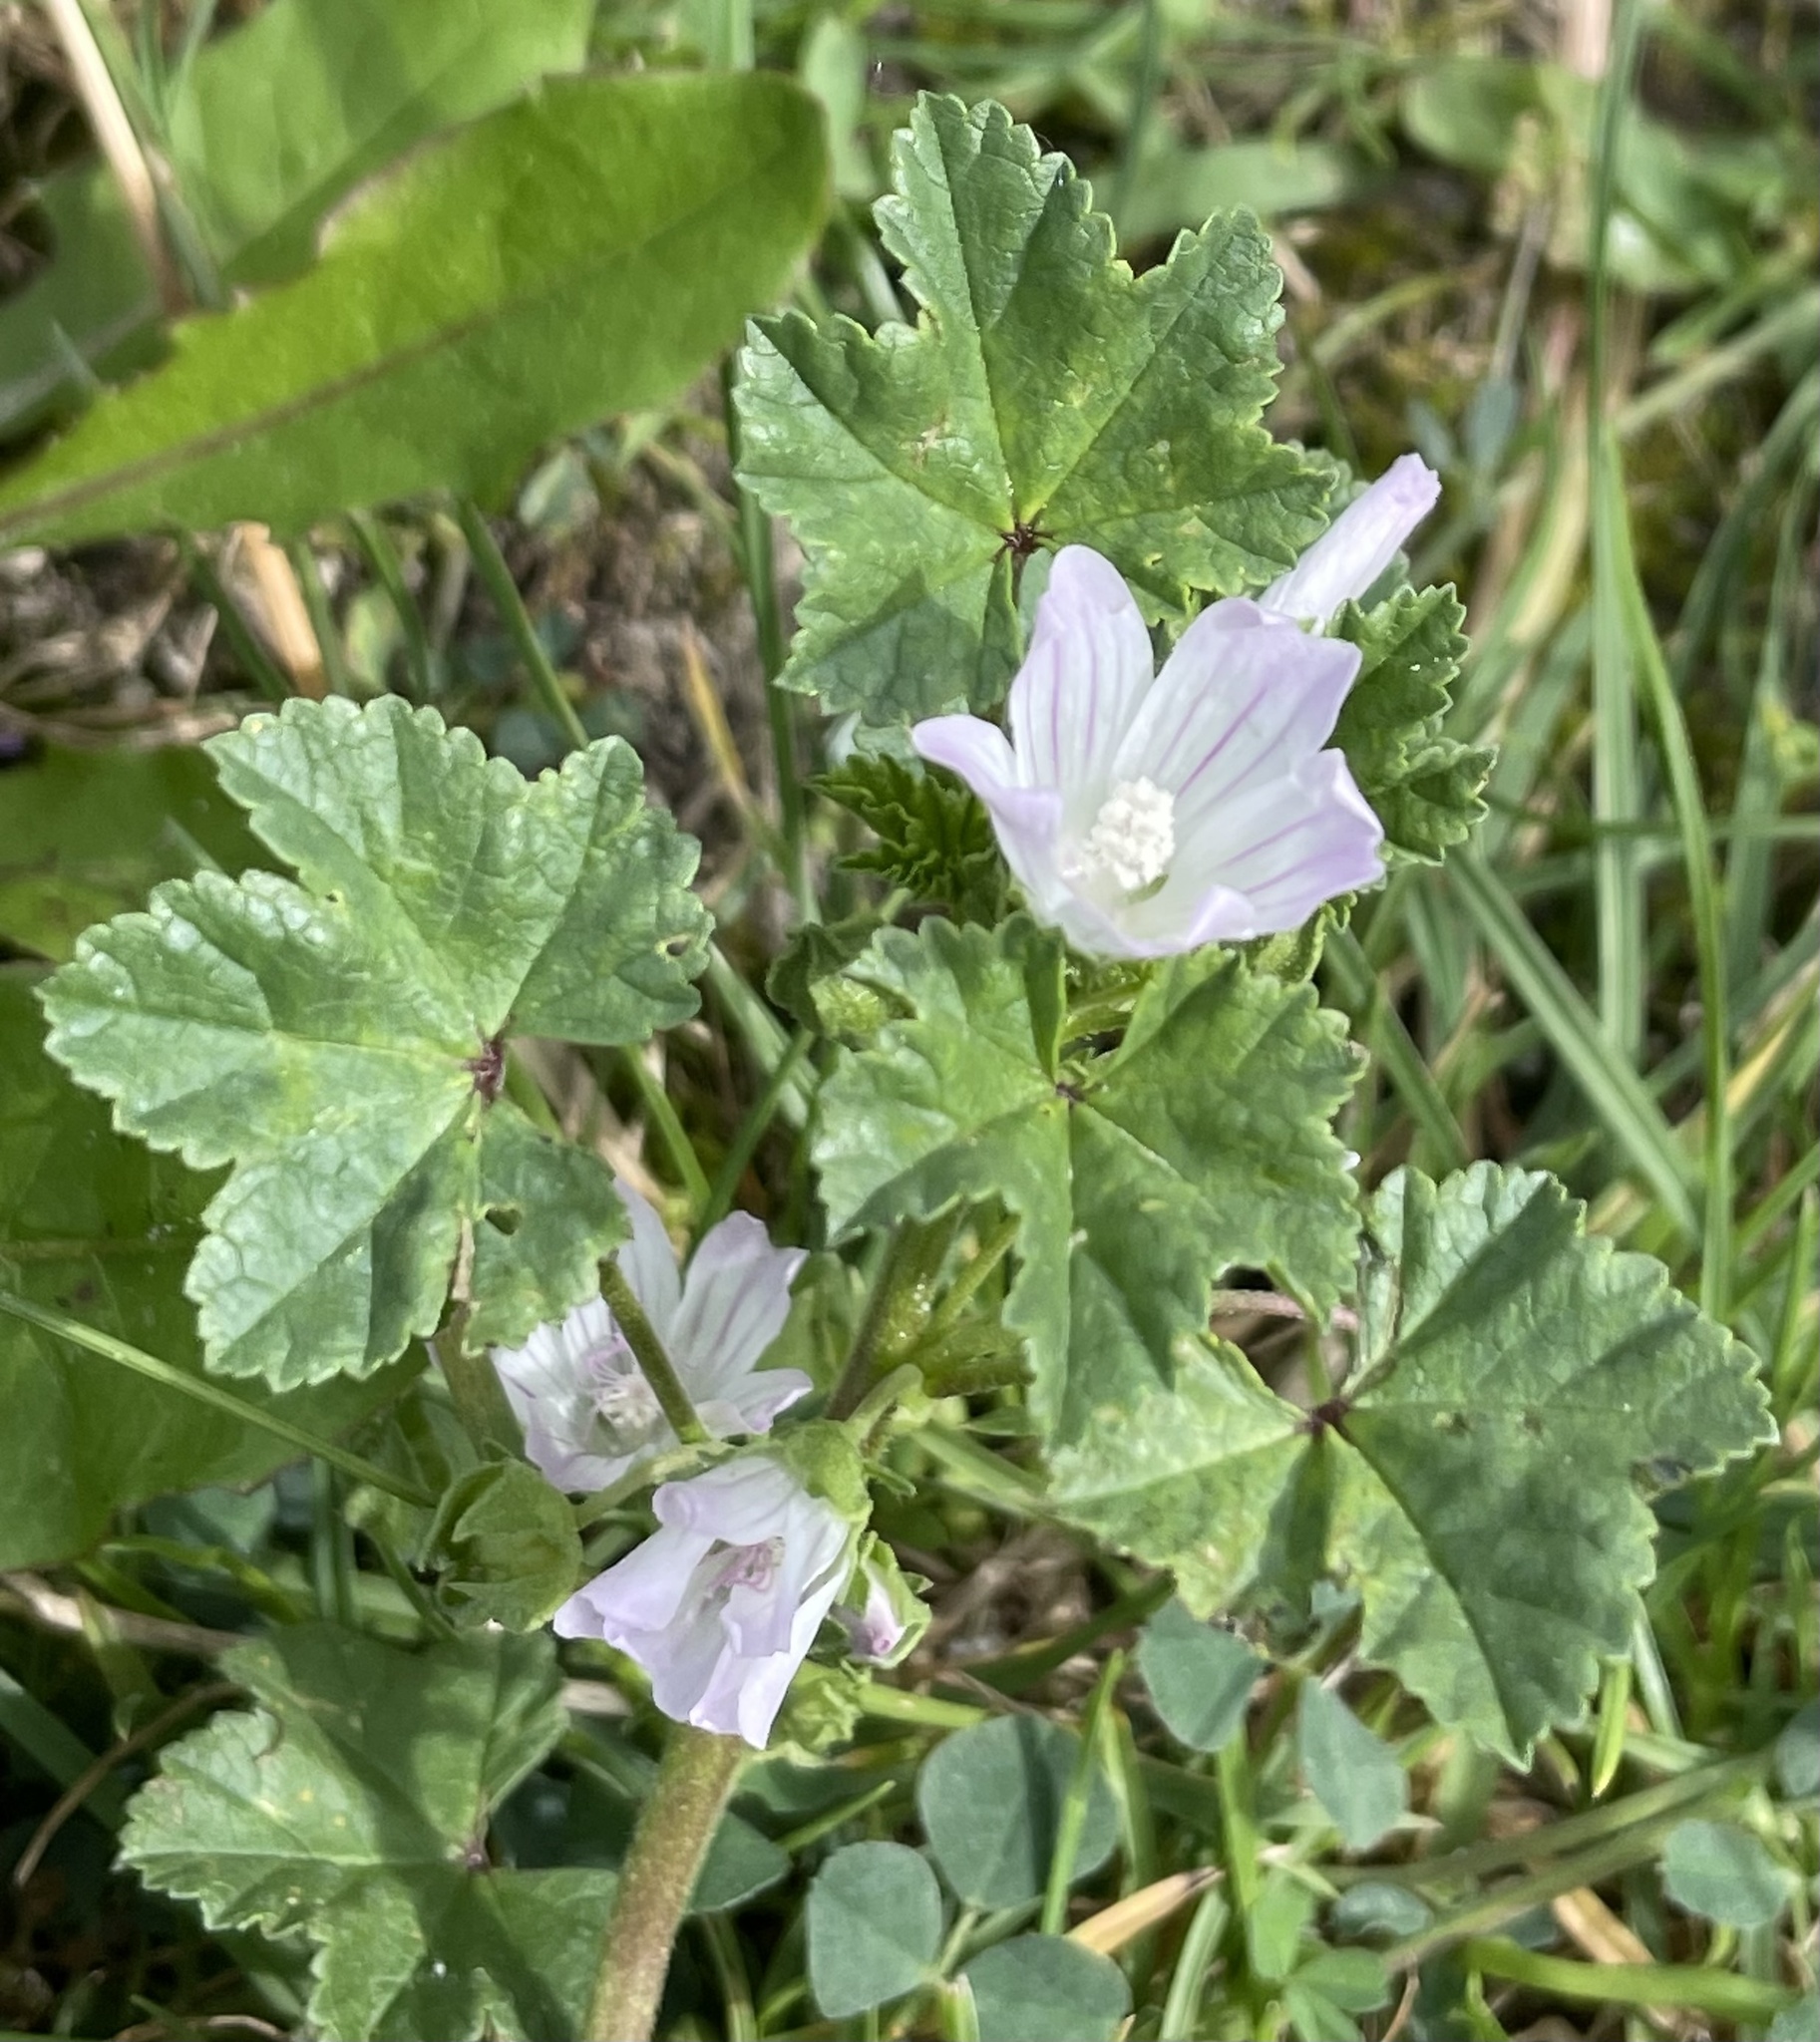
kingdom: Plantae
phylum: Tracheophyta
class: Magnoliopsida
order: Malvales
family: Malvaceae
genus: Malva
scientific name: Malva neglecta
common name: Common mallow
